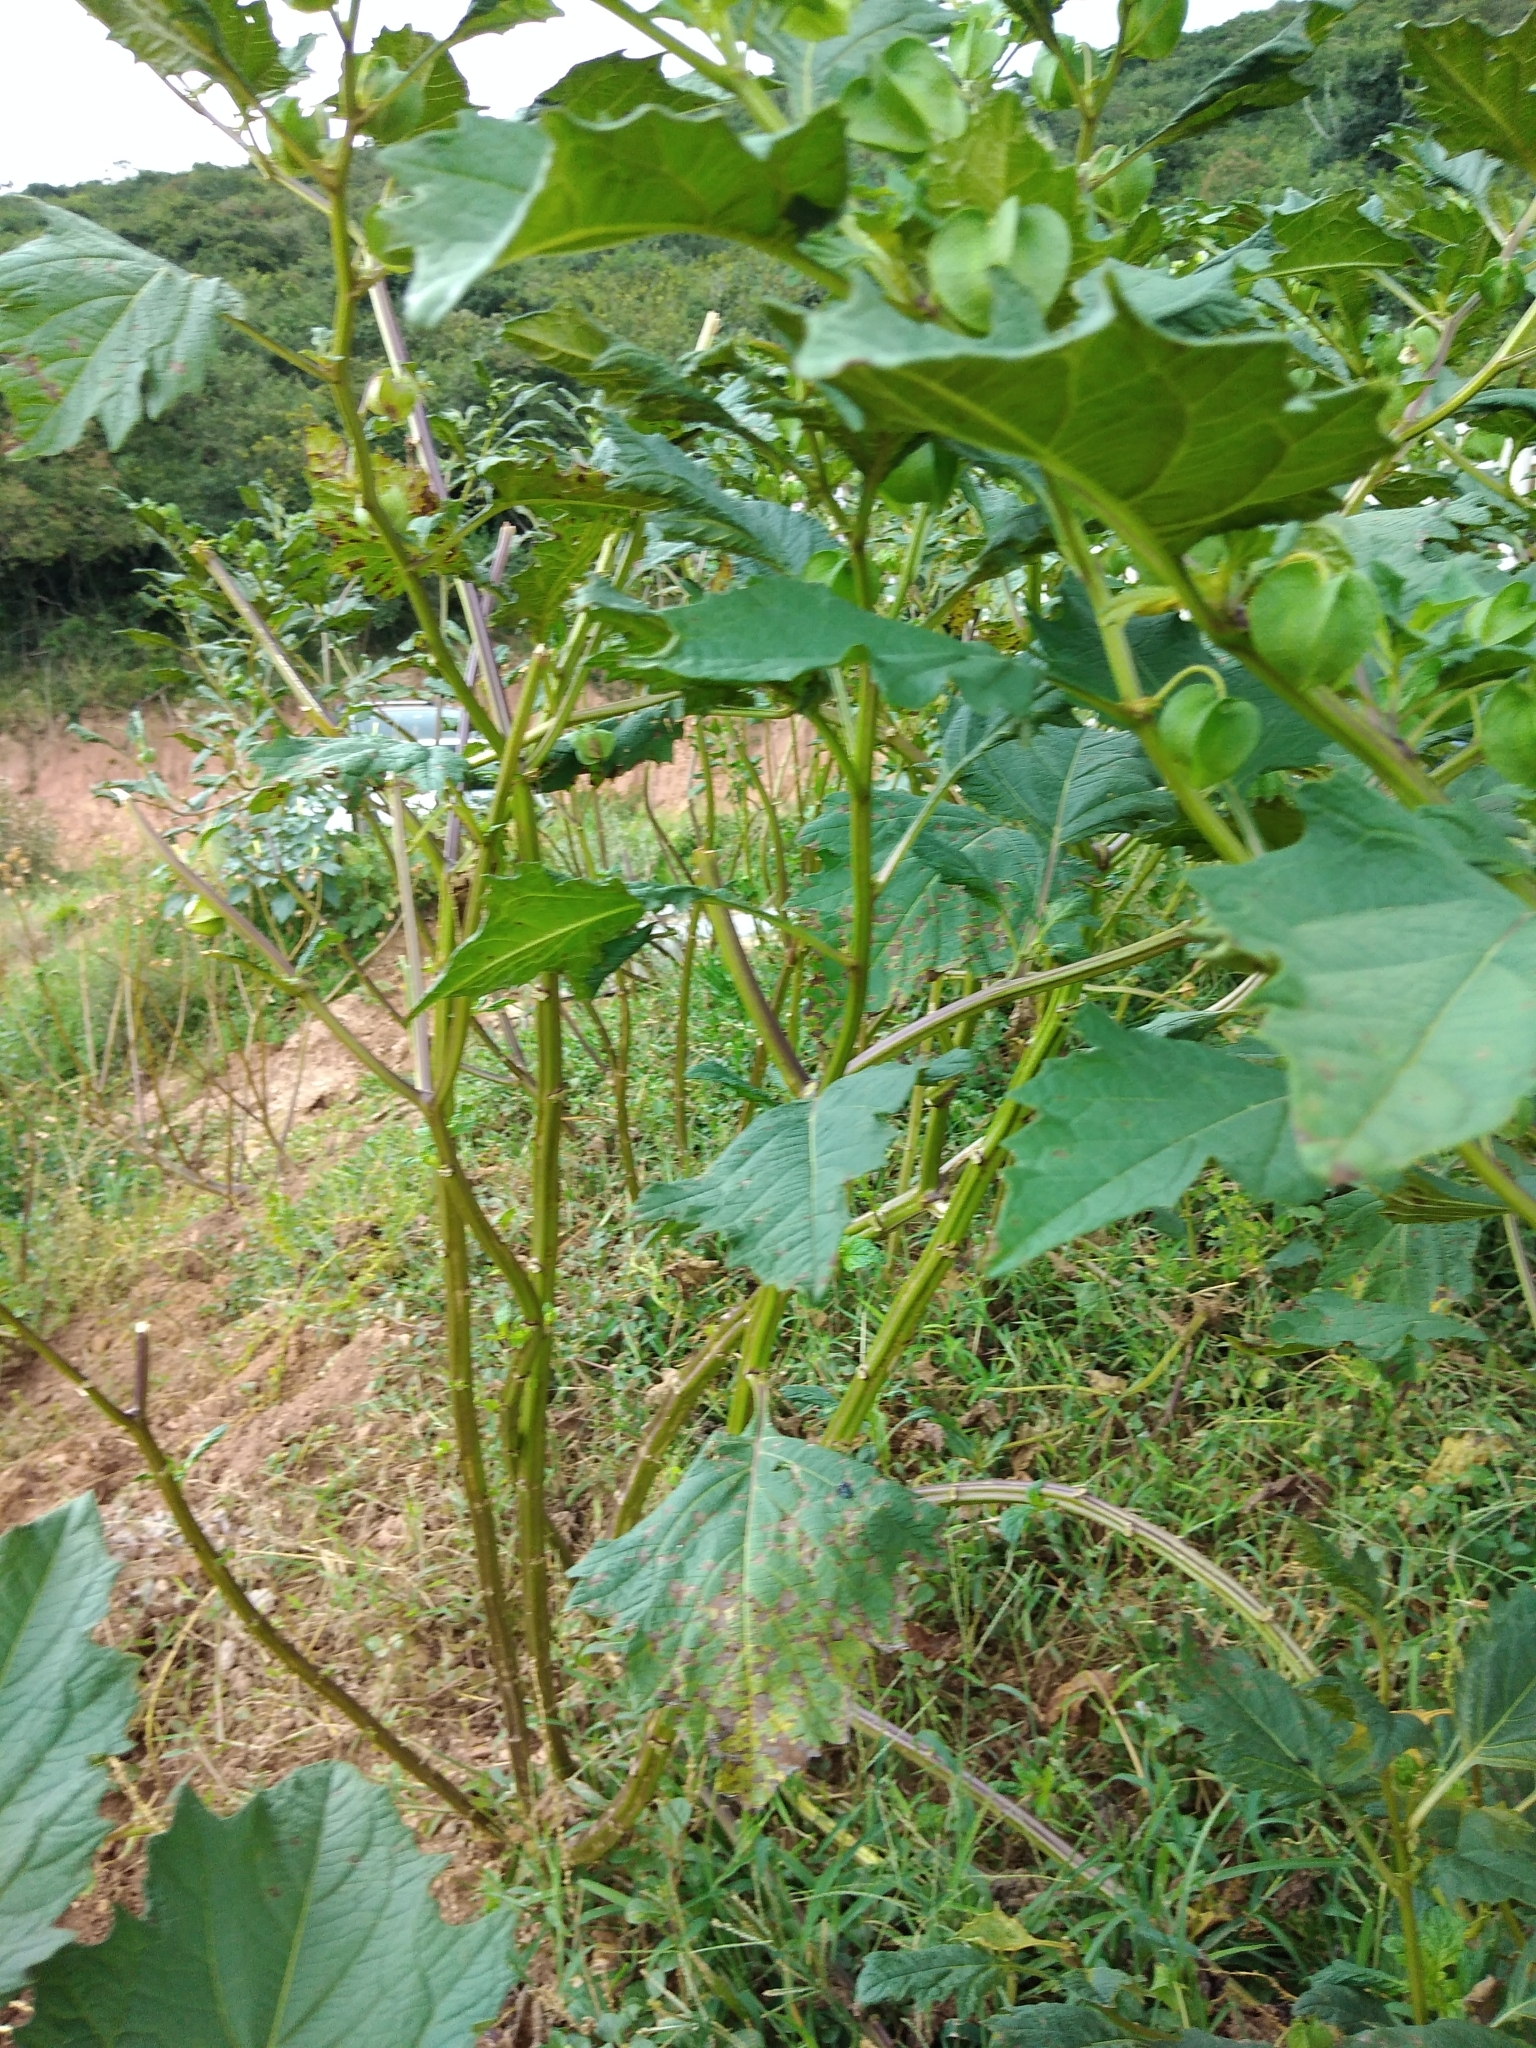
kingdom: Plantae
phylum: Tracheophyta
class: Magnoliopsida
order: Solanales
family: Solanaceae
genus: Nicandra
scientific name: Nicandra physalodes
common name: Apple-of-peru
